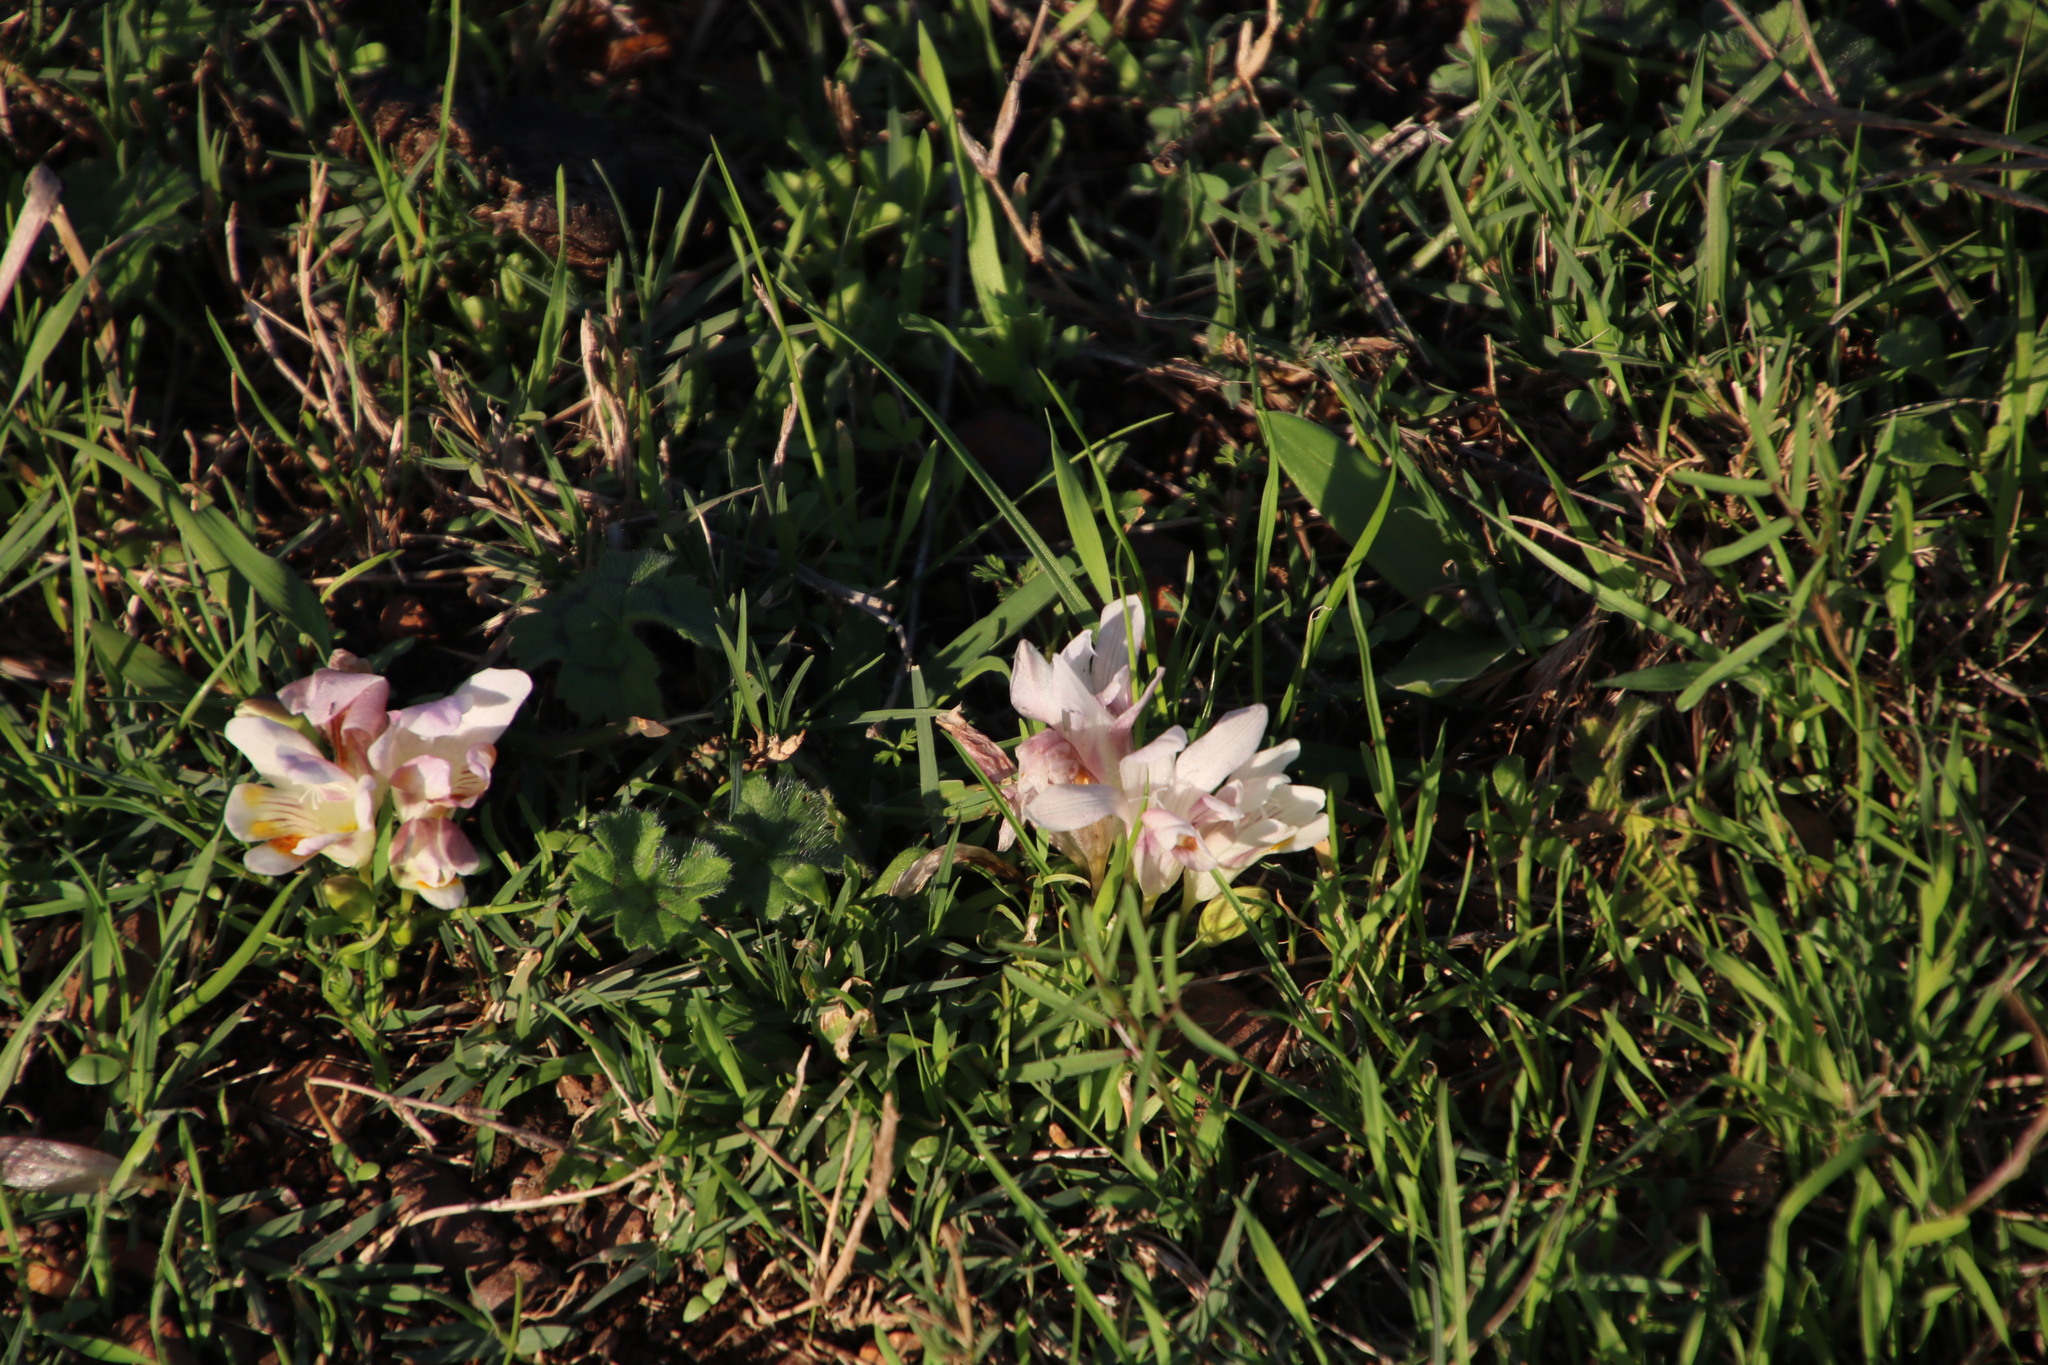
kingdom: Plantae
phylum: Tracheophyta
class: Liliopsida
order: Asparagales
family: Iridaceae
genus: Freesia
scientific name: Freesia caryophyllacea
